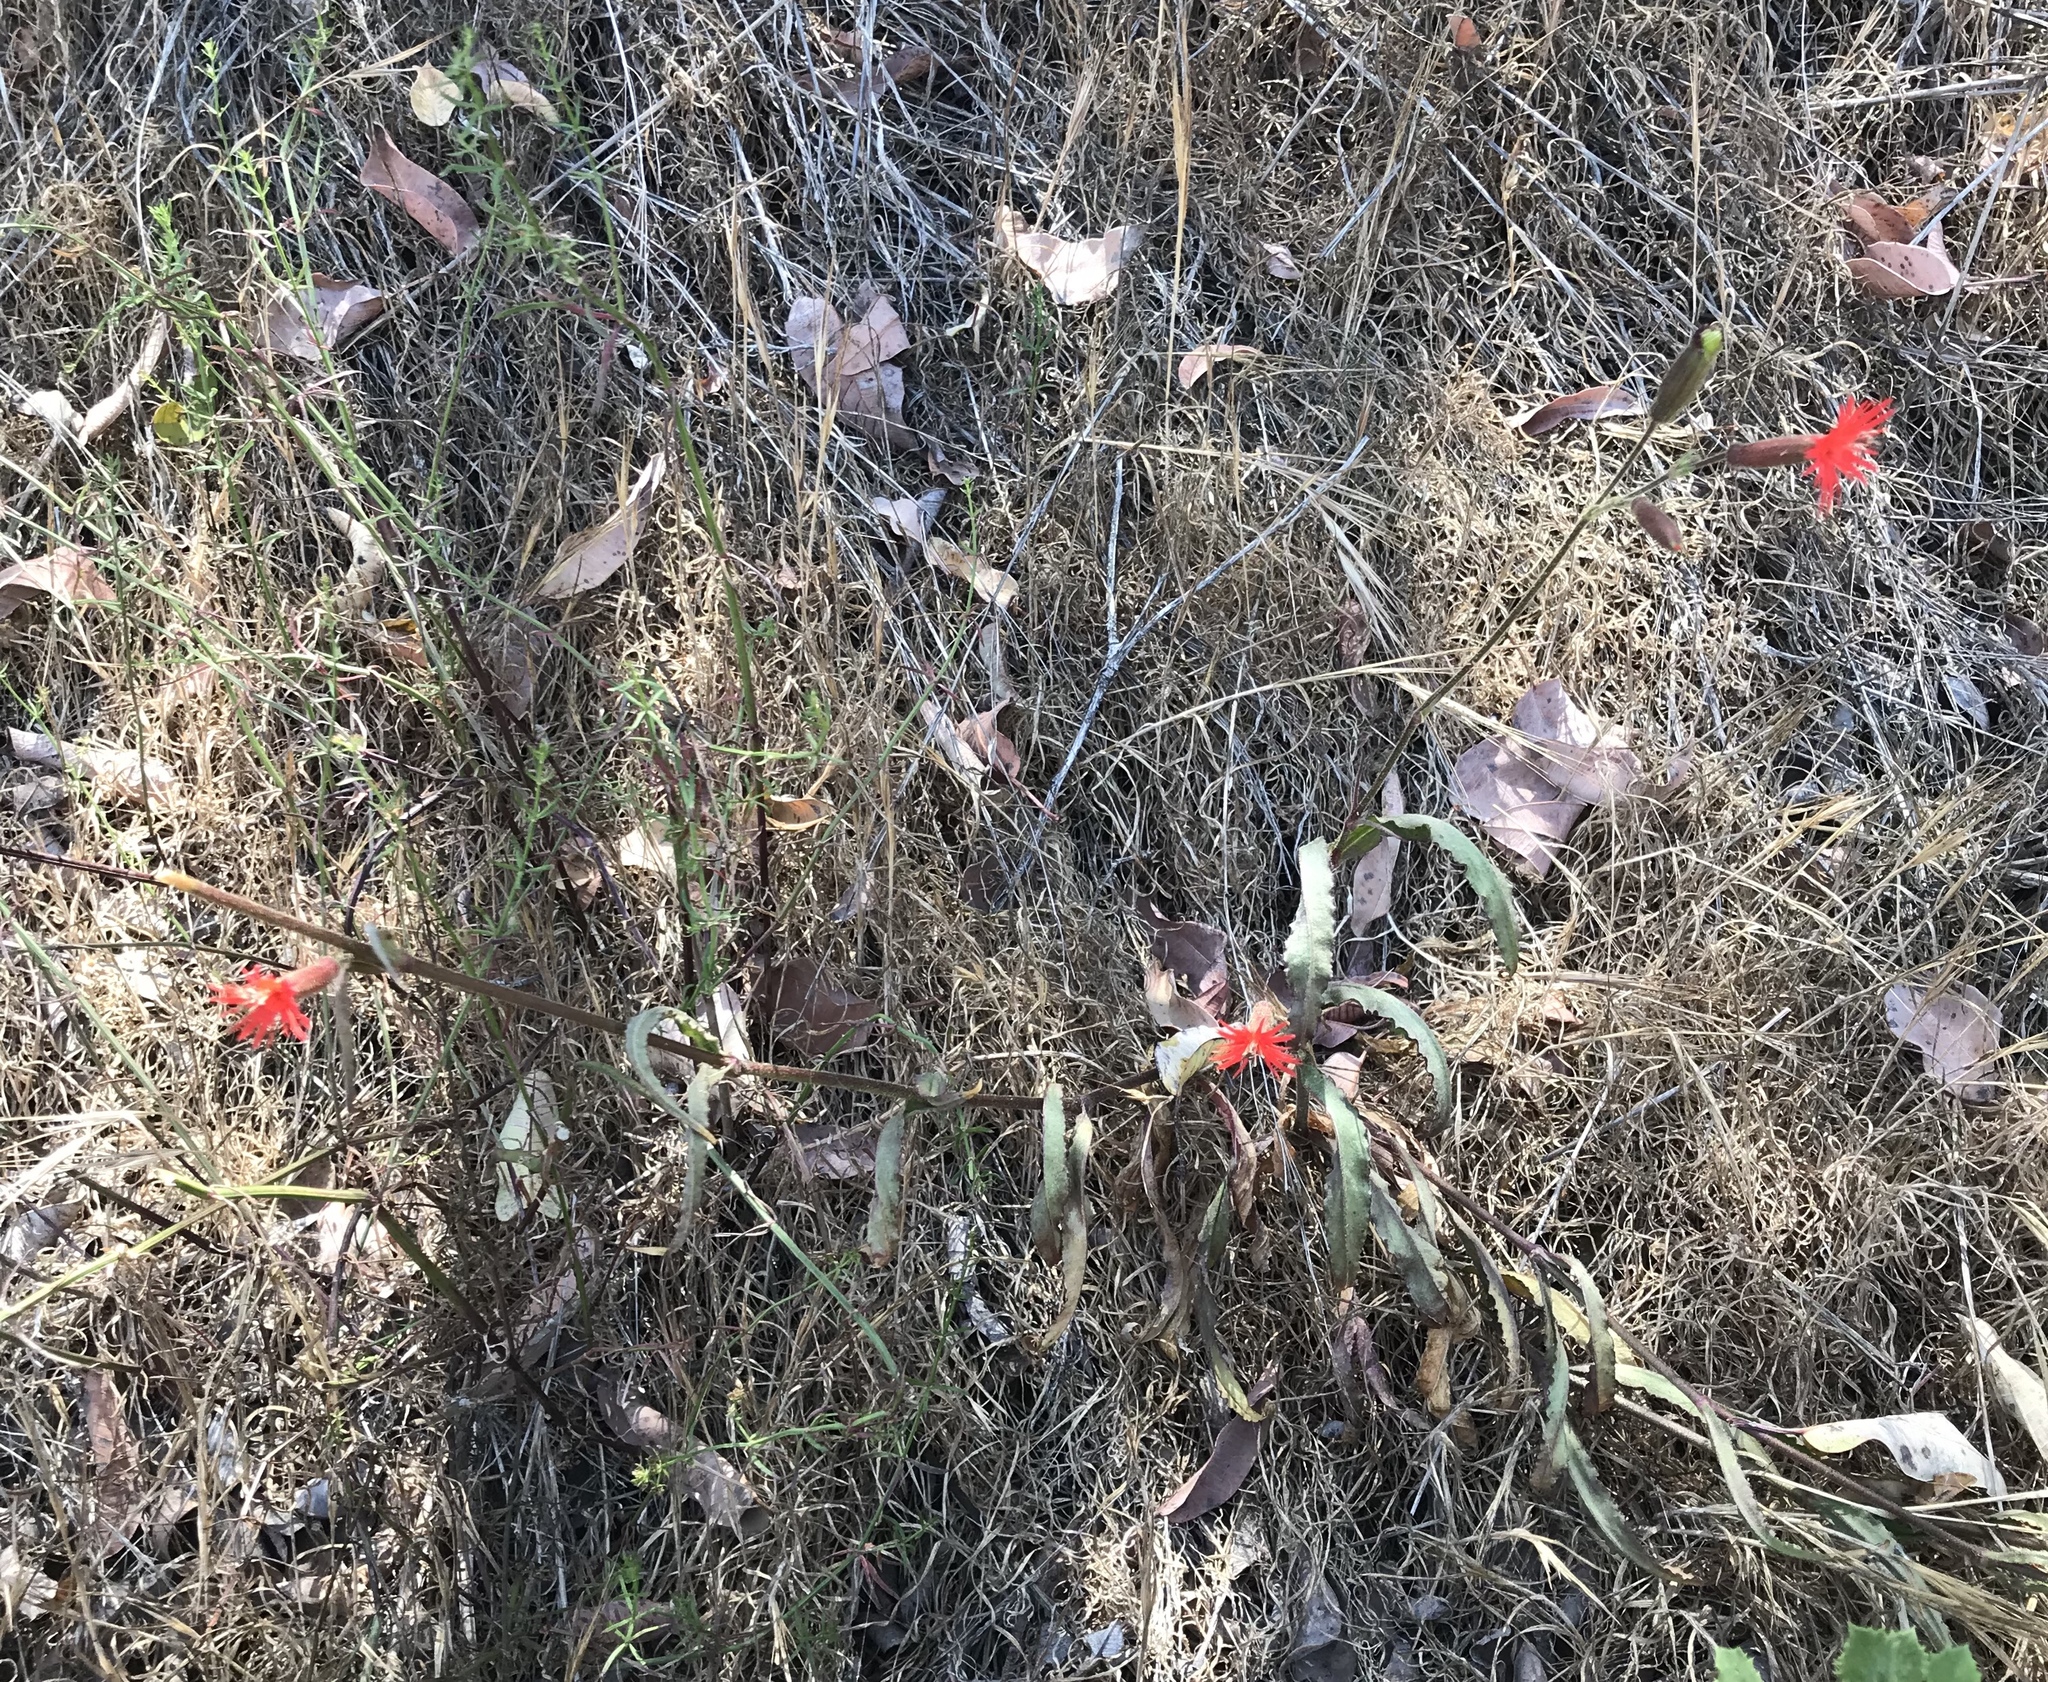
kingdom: Plantae
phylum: Tracheophyta
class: Magnoliopsida
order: Caryophyllales
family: Caryophyllaceae
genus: Silene
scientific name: Silene laciniata
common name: Indian-pink
